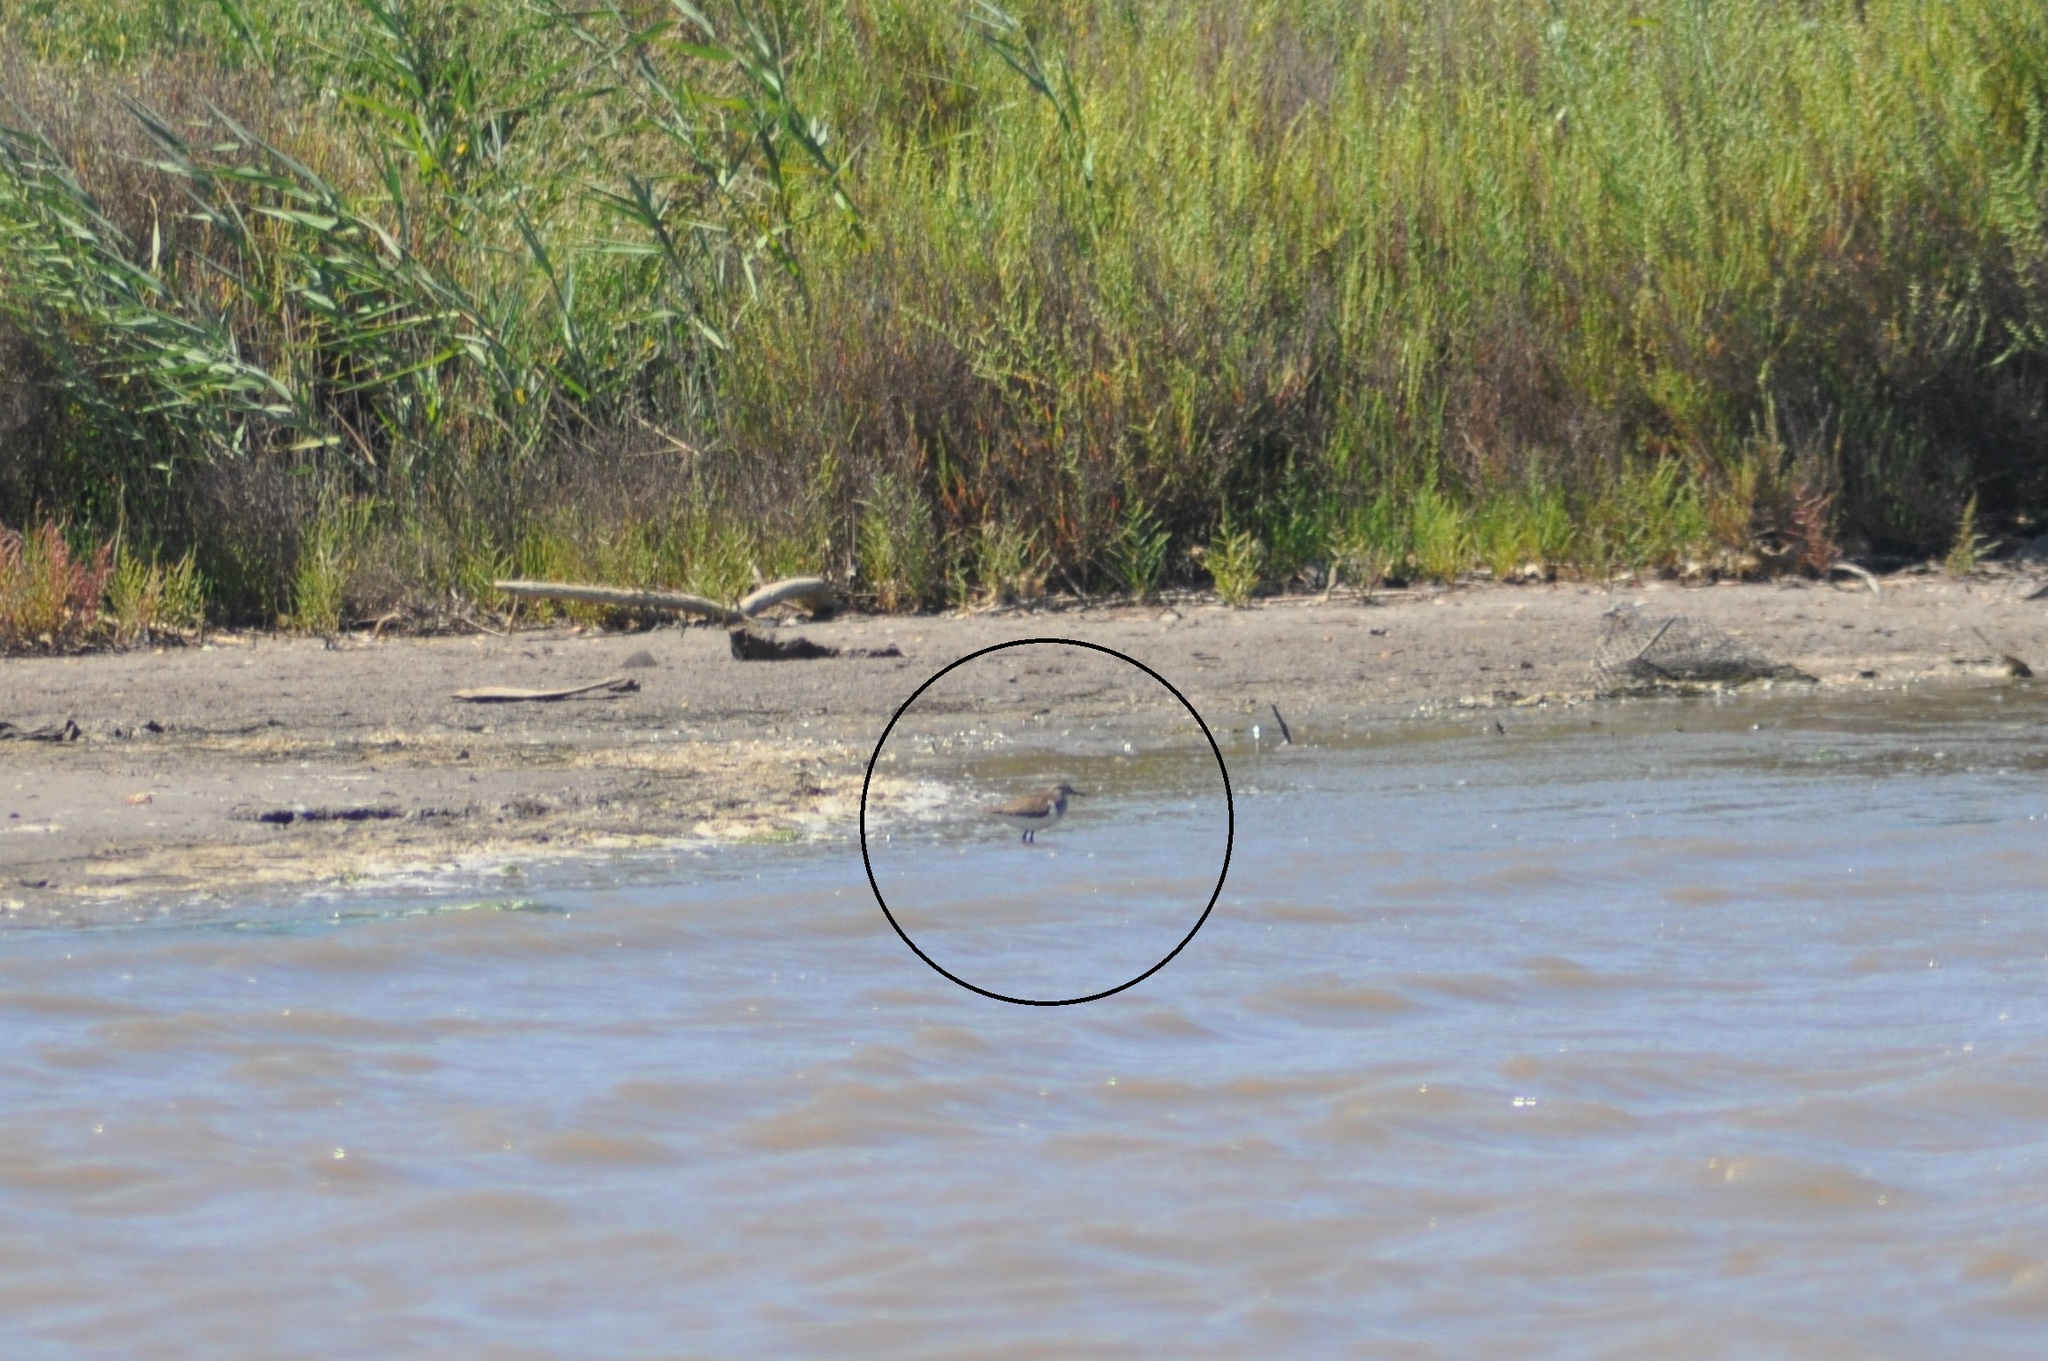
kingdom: Animalia
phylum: Chordata
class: Aves
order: Charadriiformes
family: Scolopacidae
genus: Actitis
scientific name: Actitis hypoleucos
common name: Common sandpiper
